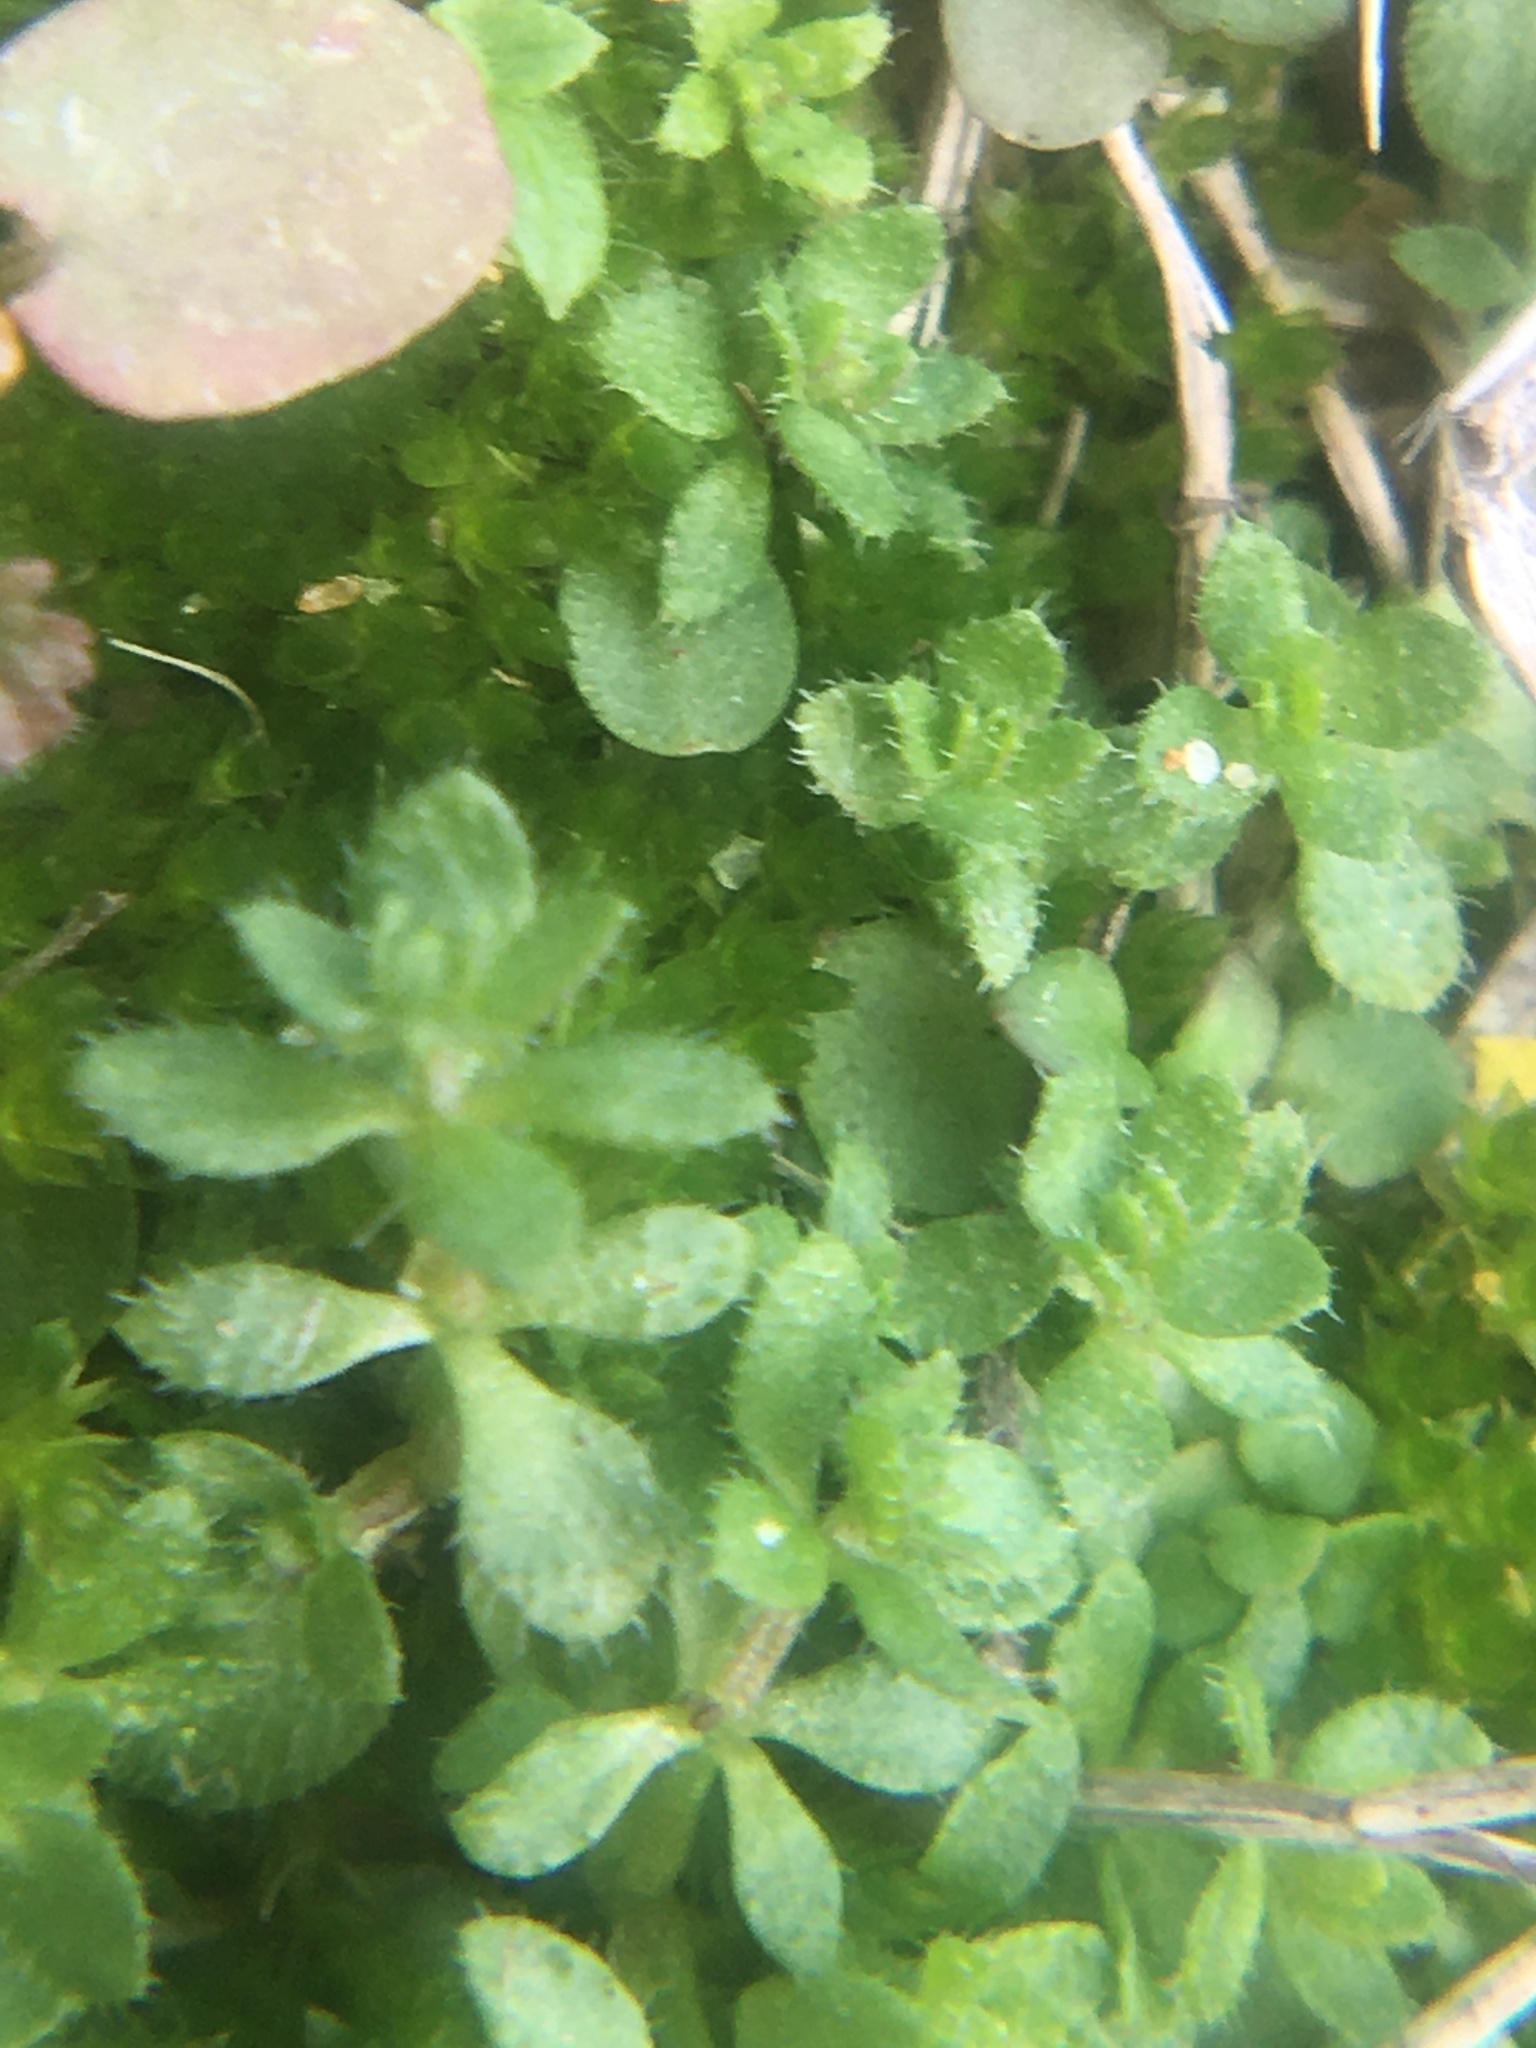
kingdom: Plantae
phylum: Tracheophyta
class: Magnoliopsida
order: Gentianales
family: Rubiaceae
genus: Cruciata
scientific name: Cruciata pedemontana
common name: Piedmont bedstraw
